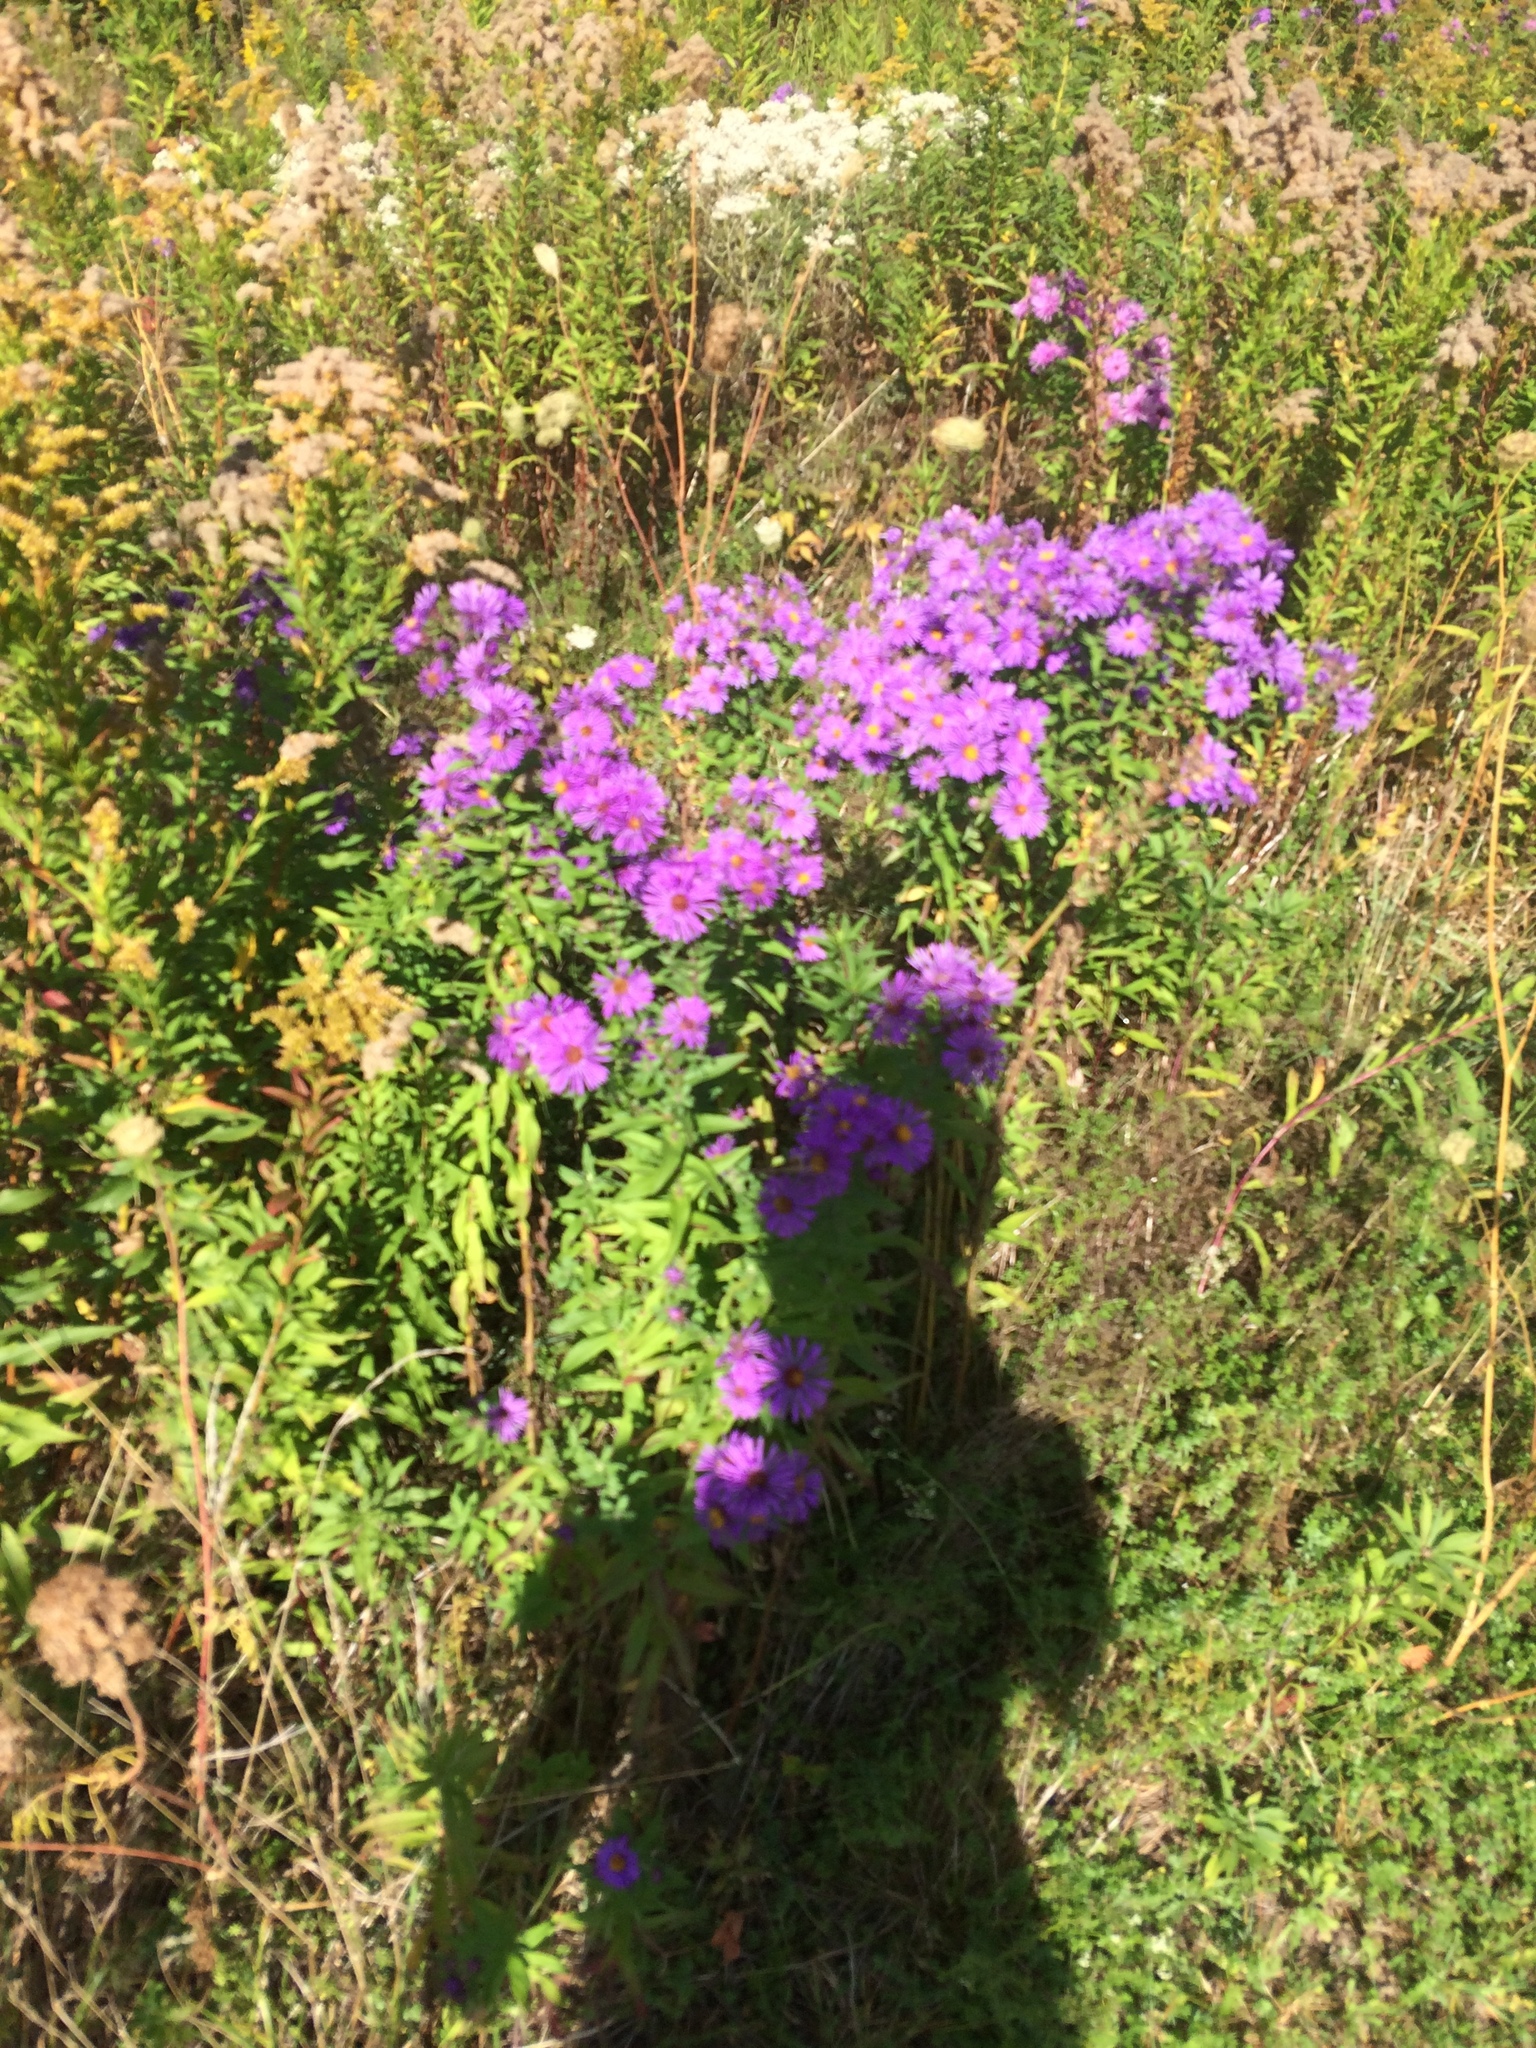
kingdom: Plantae
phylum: Tracheophyta
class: Magnoliopsida
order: Asterales
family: Asteraceae
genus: Symphyotrichum
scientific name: Symphyotrichum novae-angliae
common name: Michaelmas daisy
